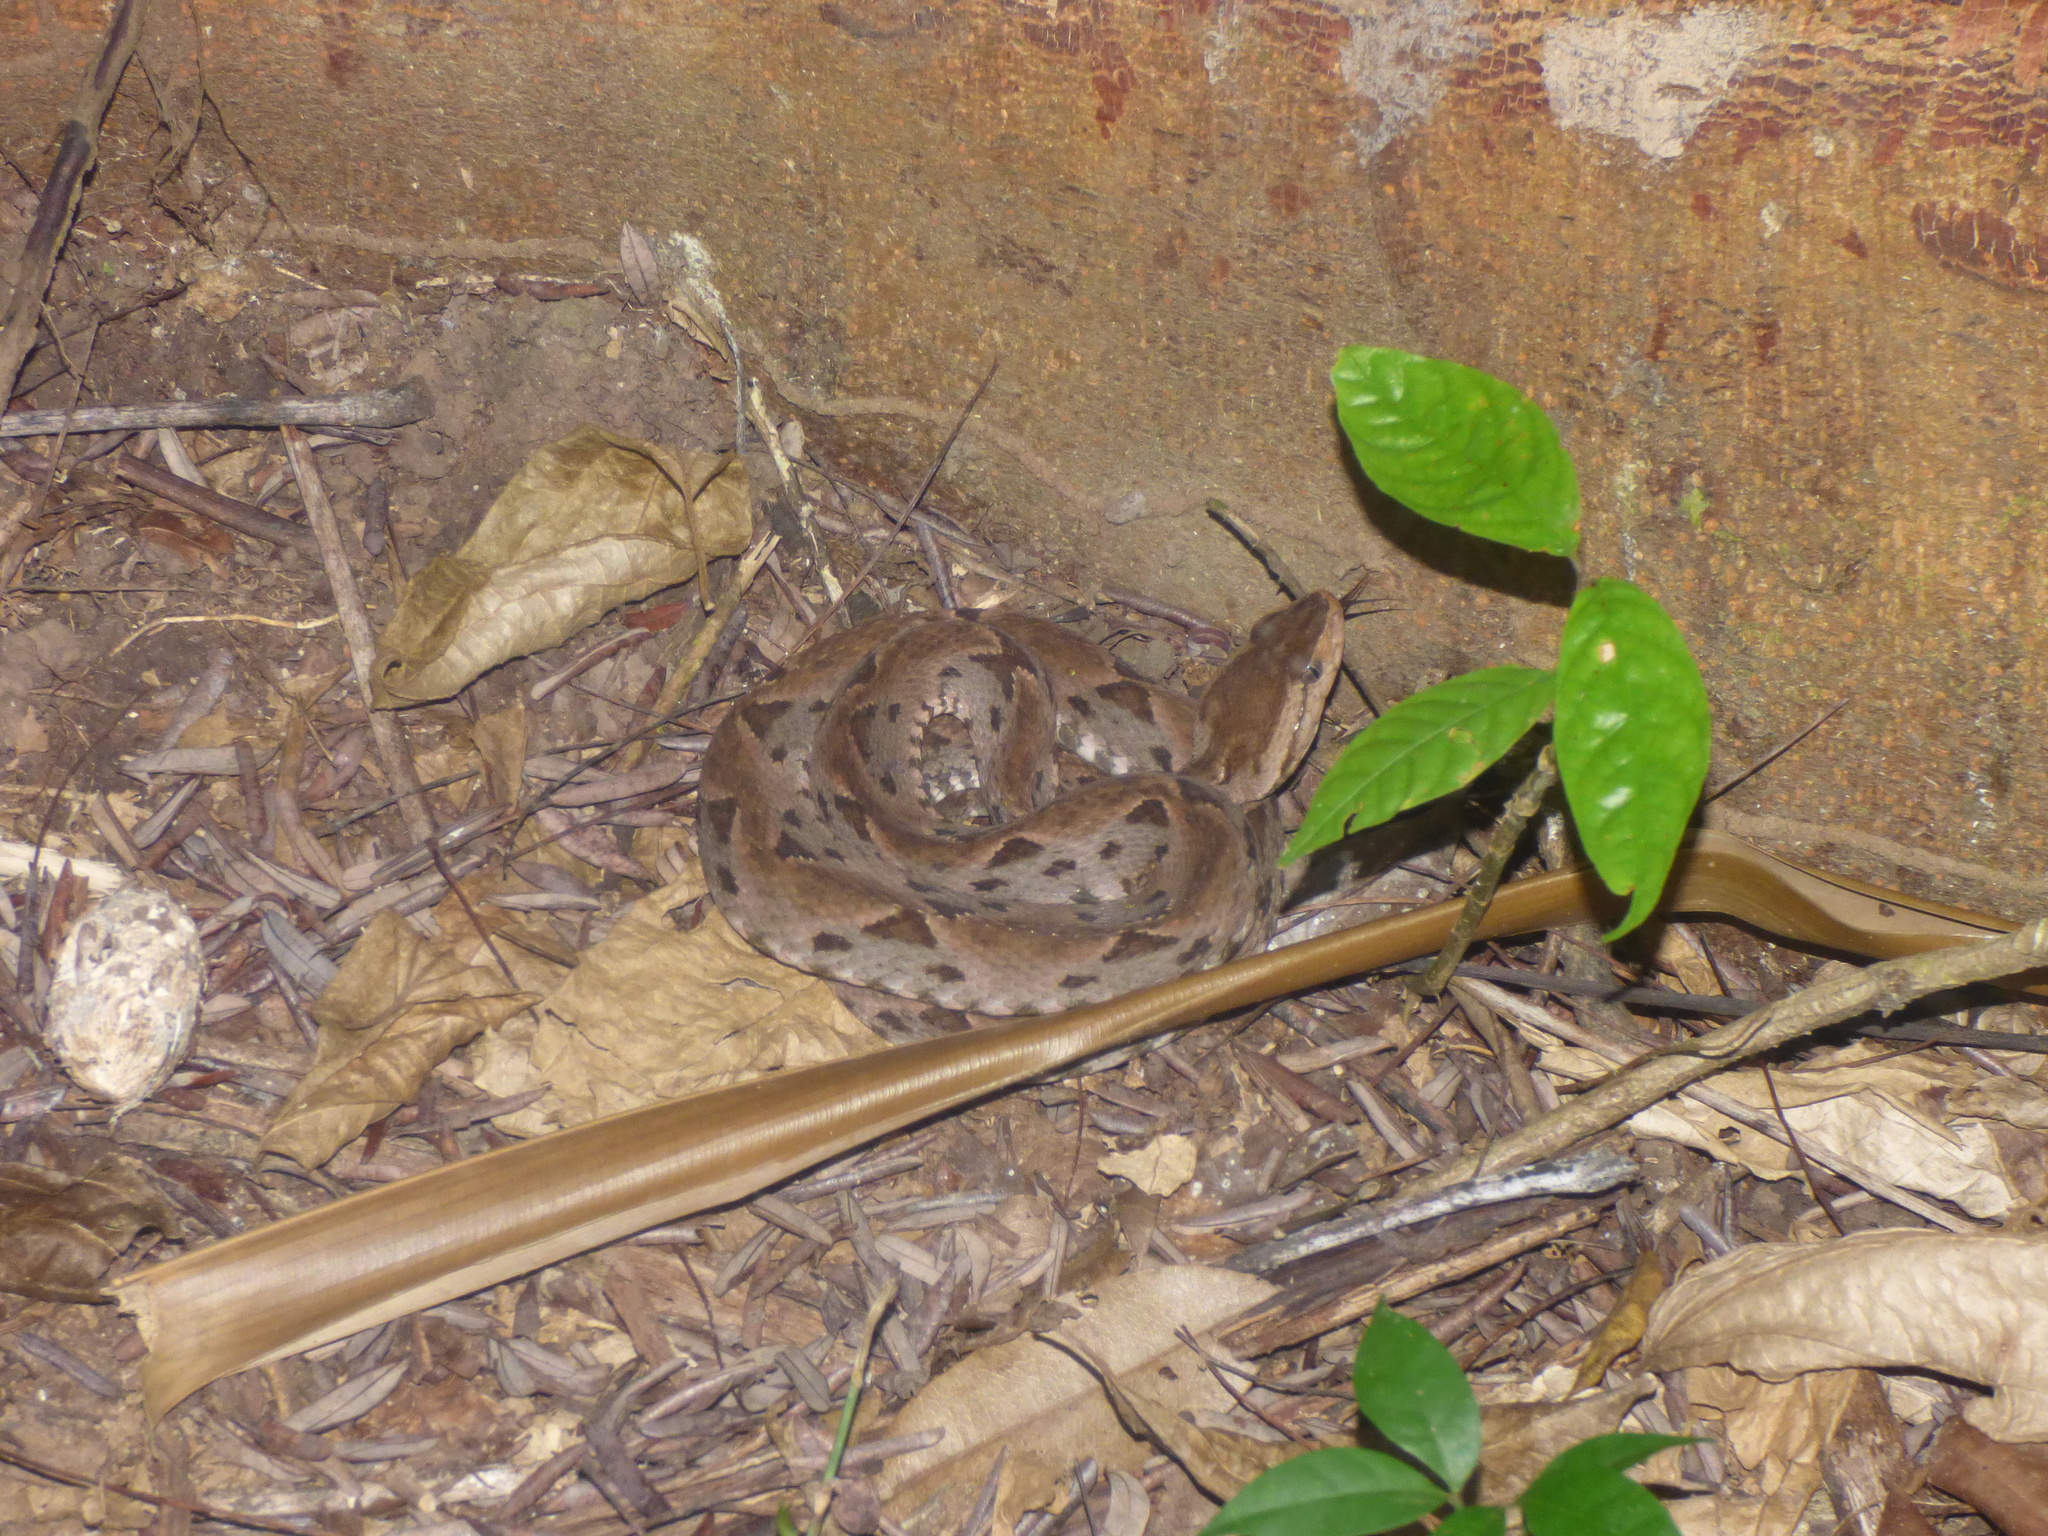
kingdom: Animalia
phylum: Chordata
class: Squamata
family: Viperidae
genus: Bothrops
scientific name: Bothrops asper
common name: Terciopelo
